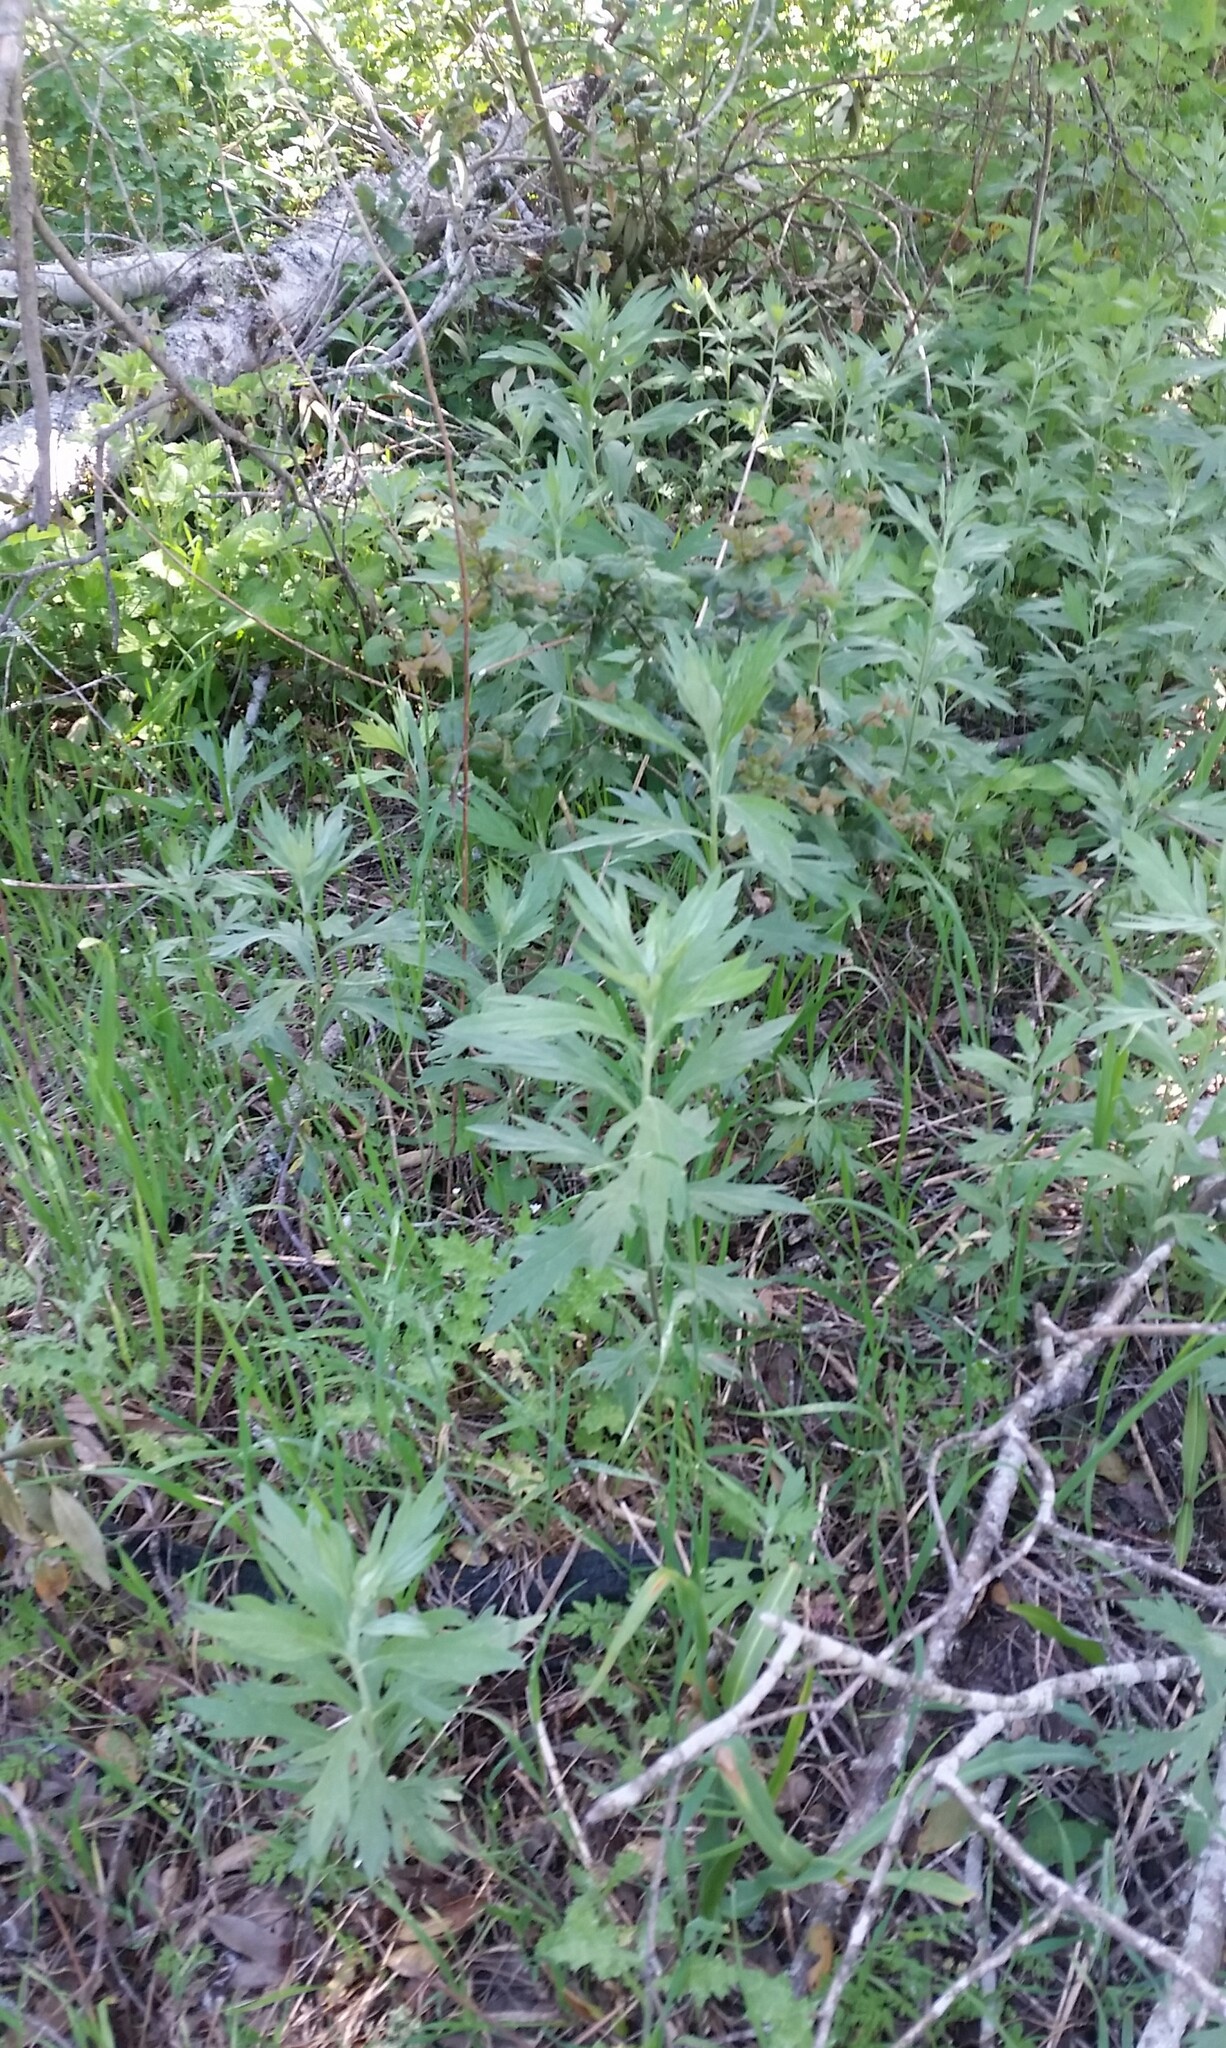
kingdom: Plantae
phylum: Tracheophyta
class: Magnoliopsida
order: Asterales
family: Asteraceae
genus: Artemisia
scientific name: Artemisia douglasiana
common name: Northwest mugwort
